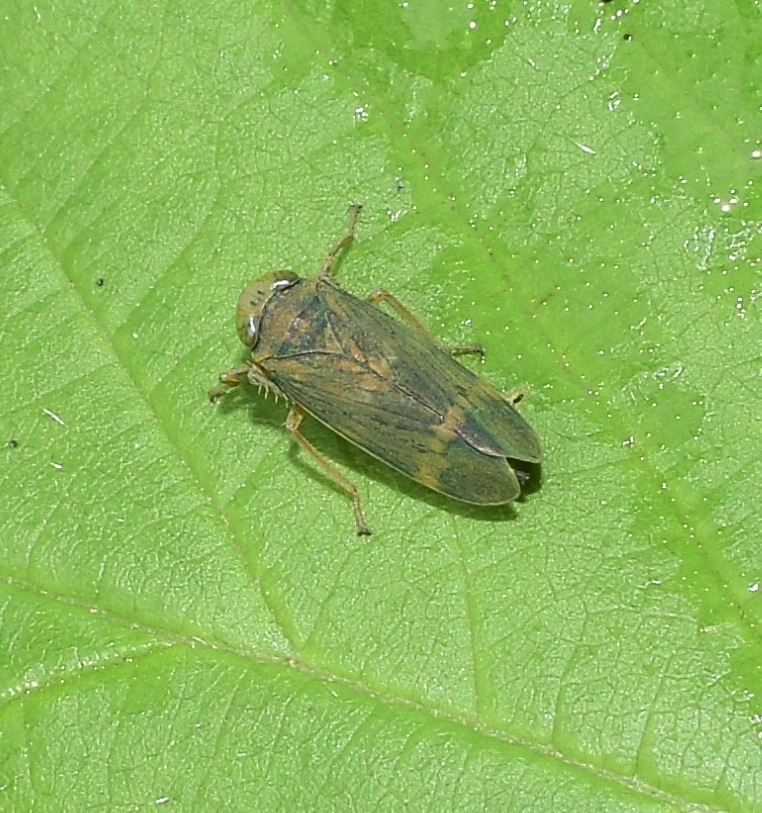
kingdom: Animalia
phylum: Arthropoda
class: Insecta
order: Hemiptera
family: Cicadellidae
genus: Jikradia
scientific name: Jikradia olitoria
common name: Coppery leafhopper
